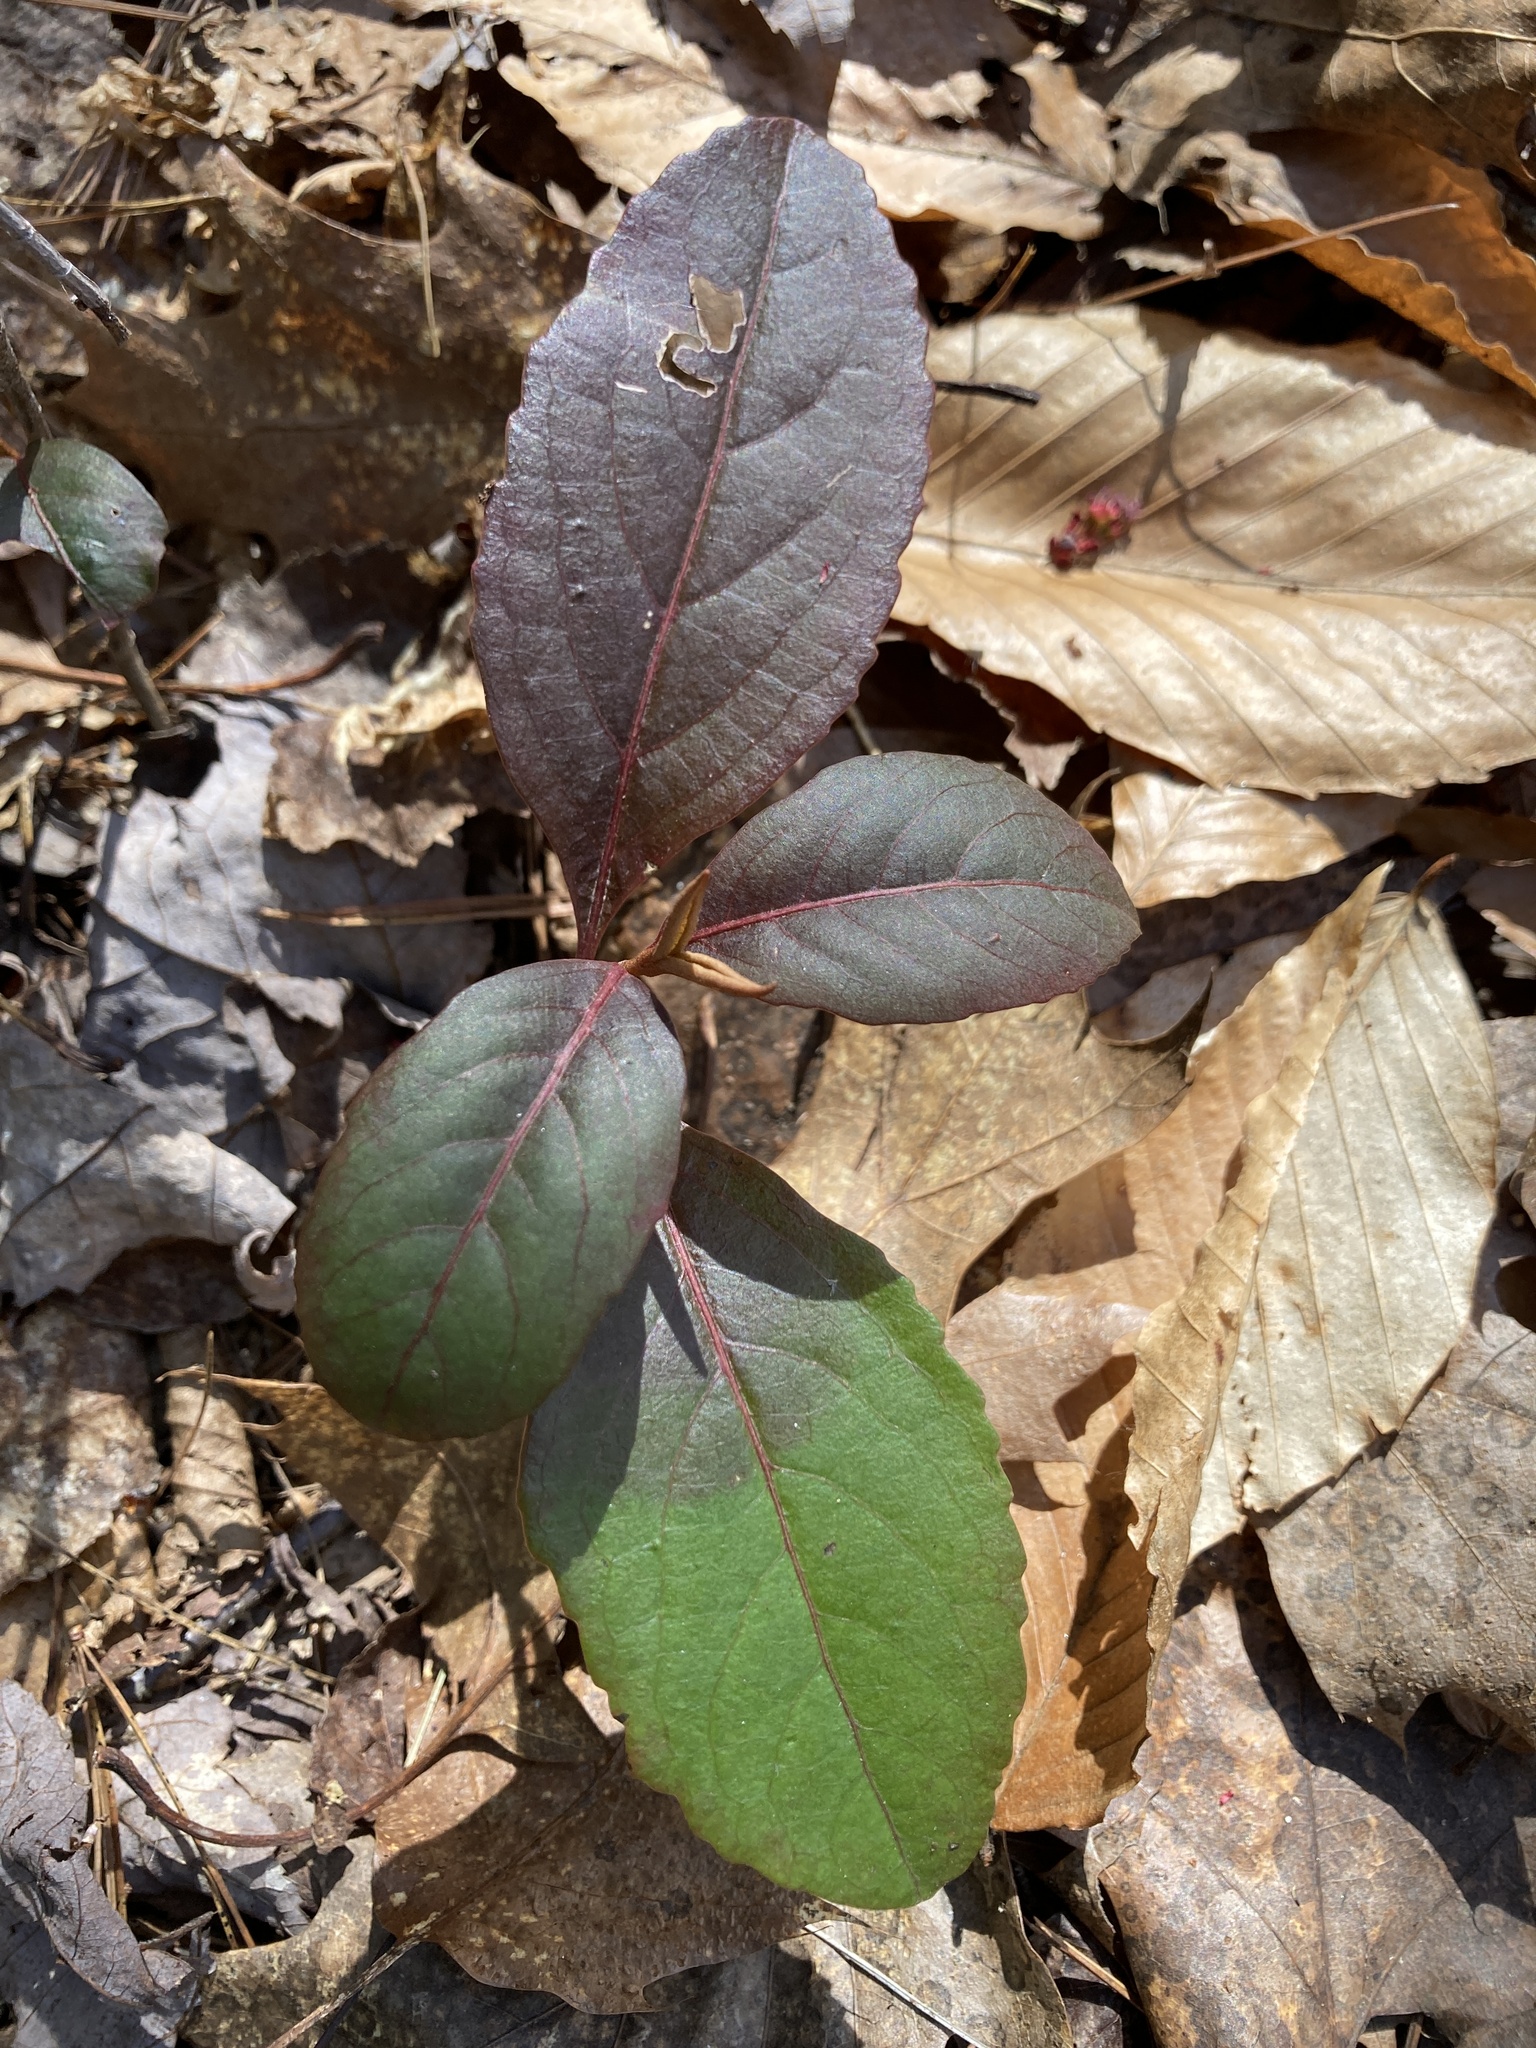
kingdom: Plantae
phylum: Tracheophyta
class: Magnoliopsida
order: Dipsacales
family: Viburnaceae
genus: Viburnum
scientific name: Viburnum cassinoides
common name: Swamp haw
